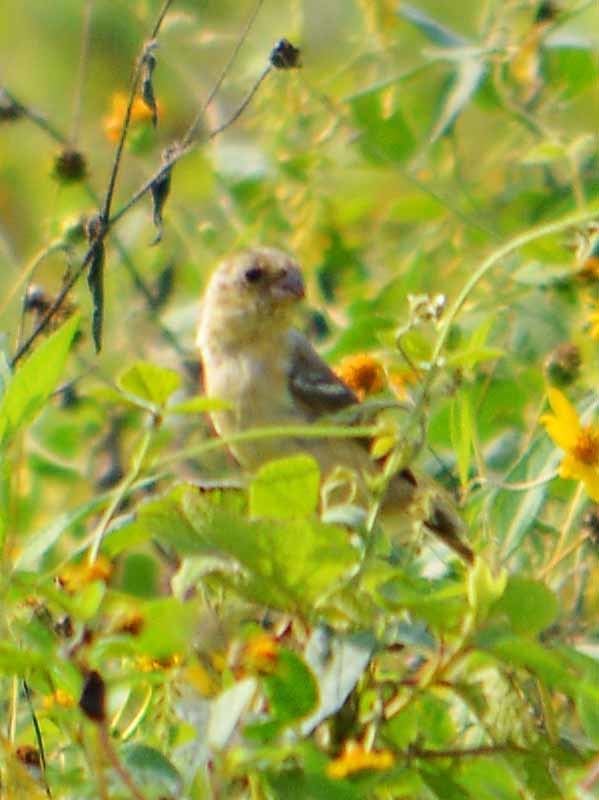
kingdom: Animalia
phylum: Chordata
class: Aves
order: Passeriformes
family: Thraupidae
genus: Sporophila
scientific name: Sporophila morelleti
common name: Morelet's seedeater
